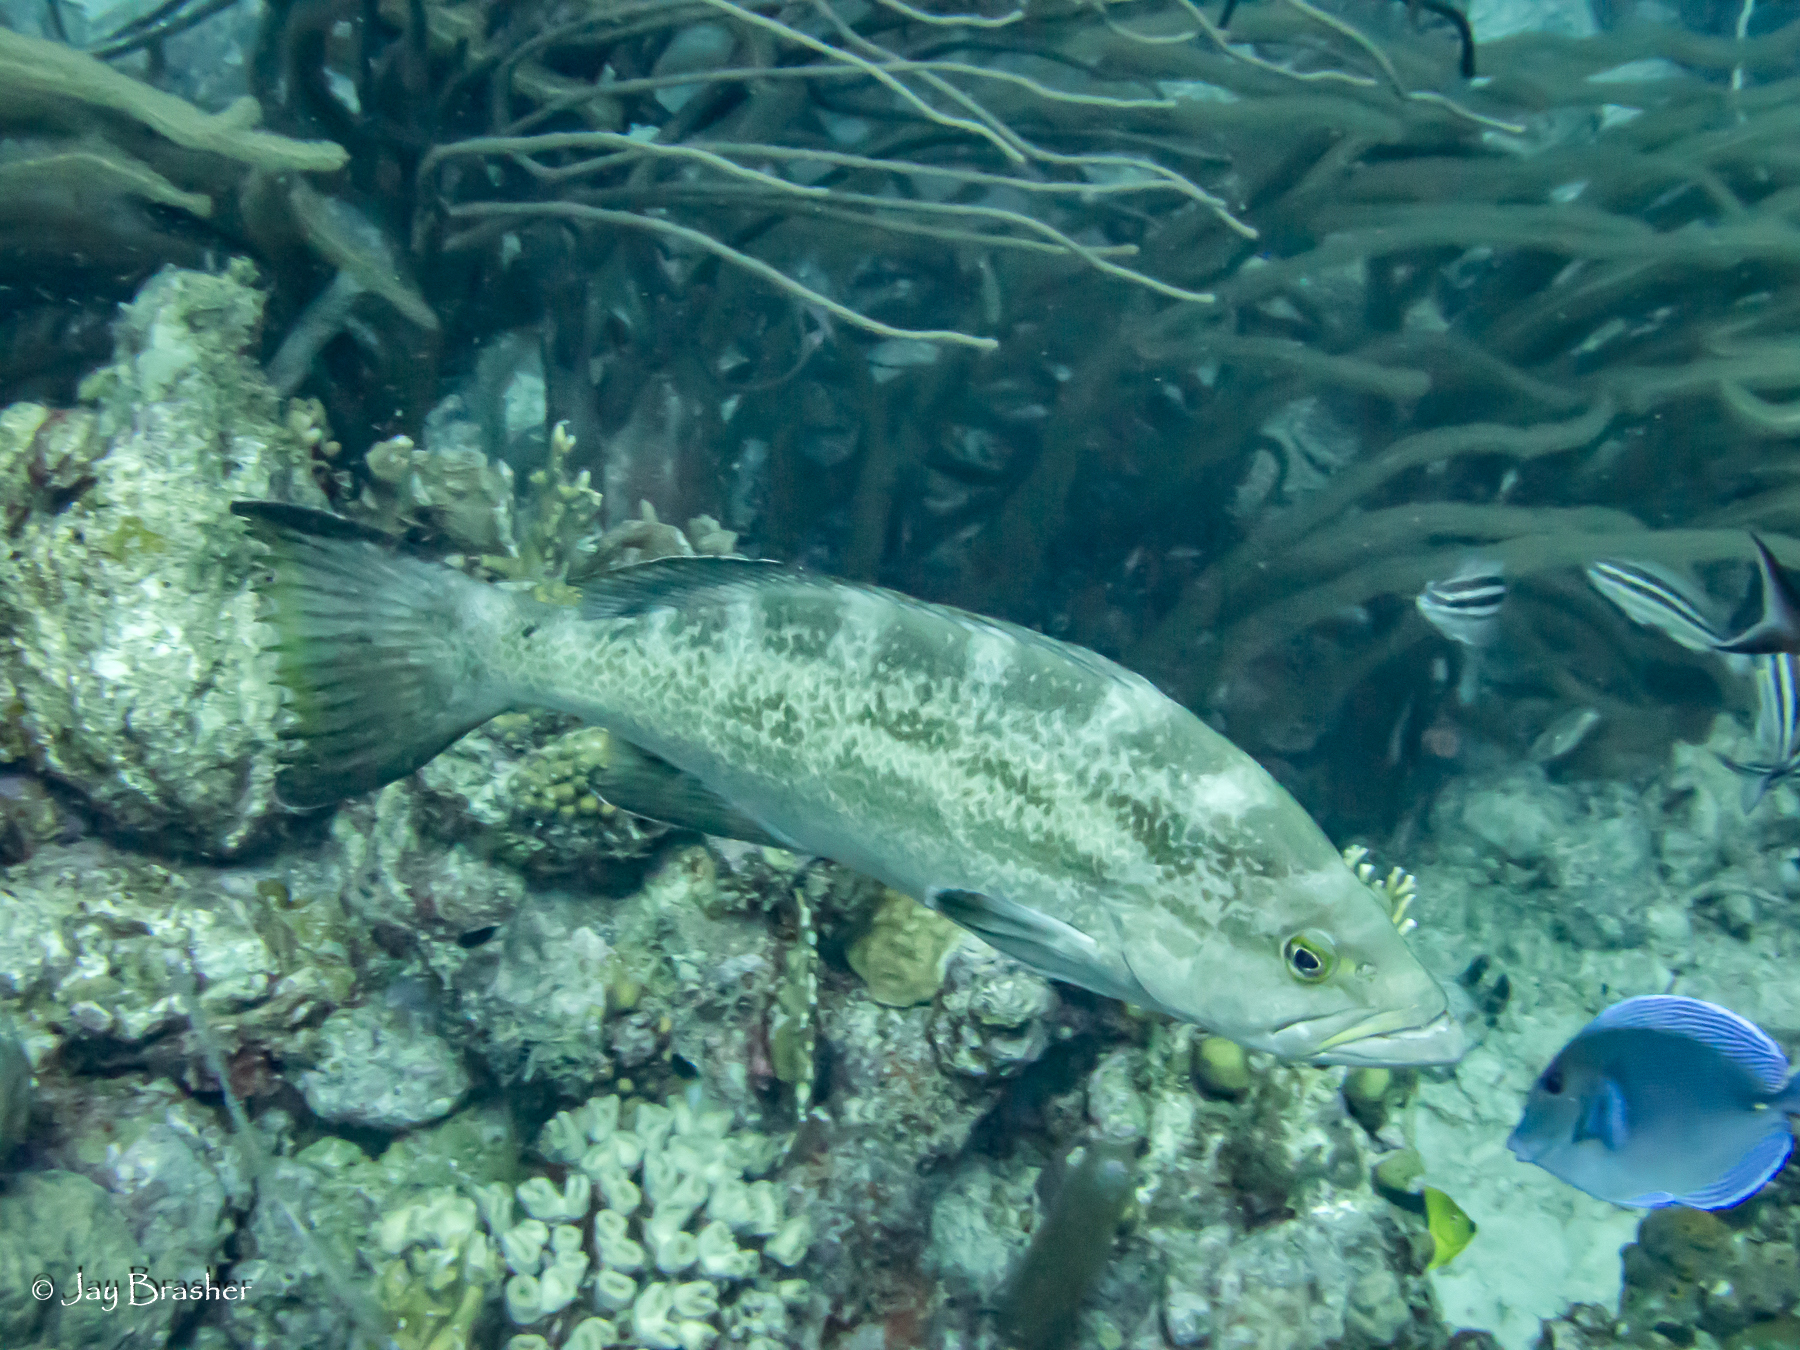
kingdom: Animalia
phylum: Chordata
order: Perciformes
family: Acanthuridae
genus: Acanthurus
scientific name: Acanthurus coeruleus
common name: Blue tang
